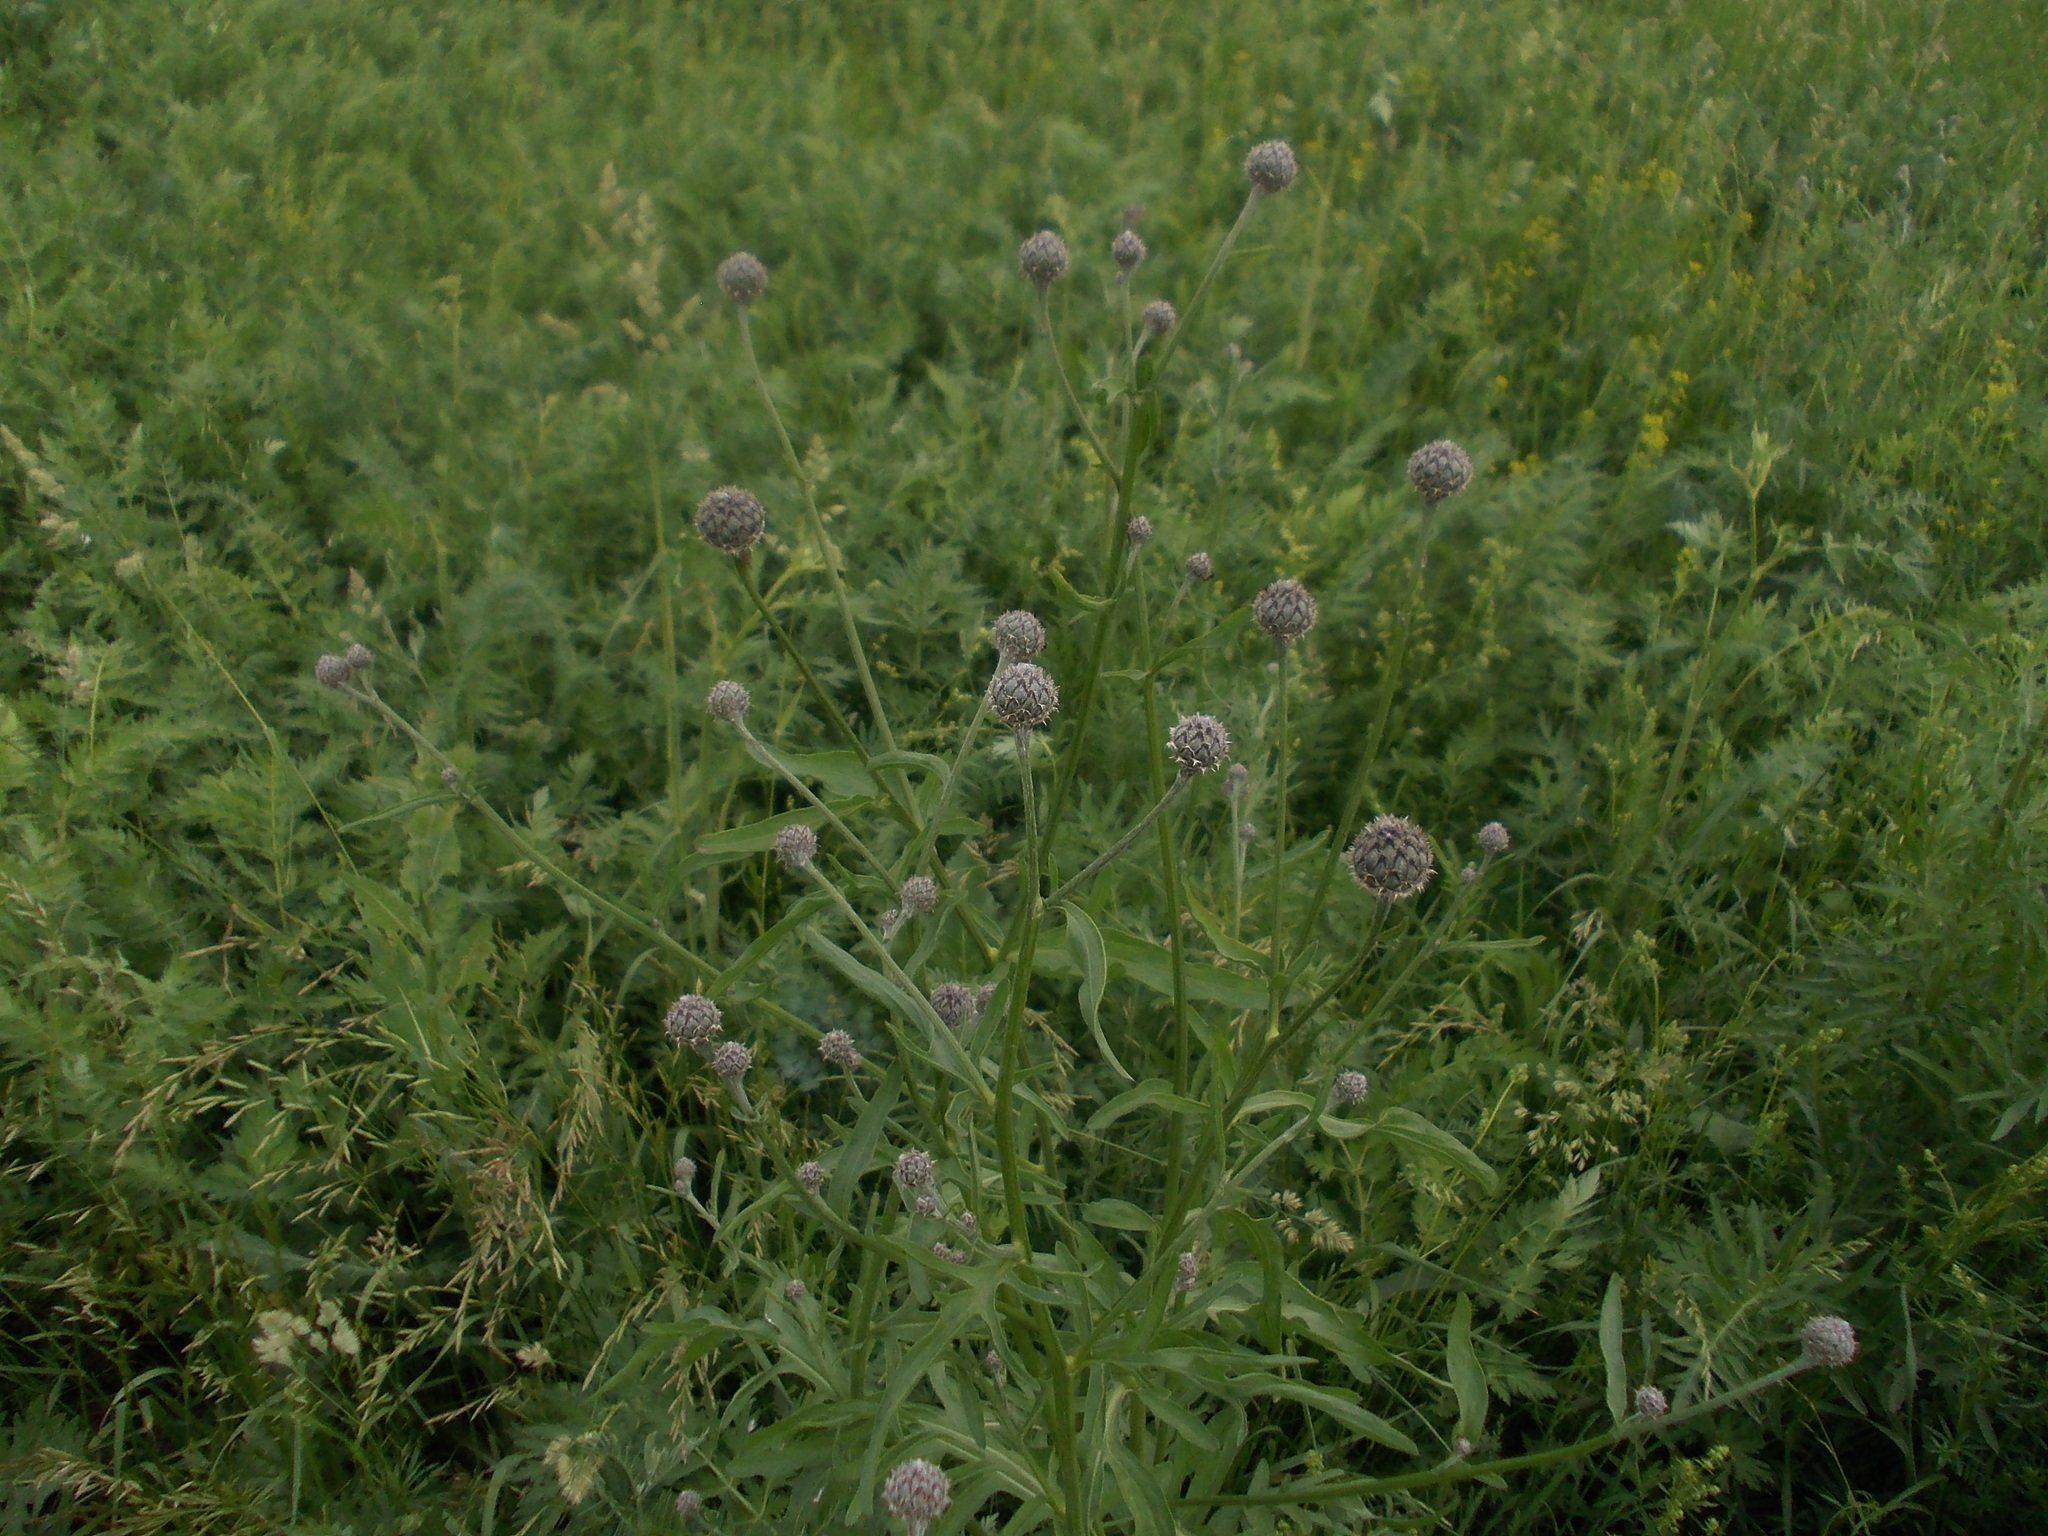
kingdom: Plantae
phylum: Tracheophyta
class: Magnoliopsida
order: Asterales
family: Asteraceae
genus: Centaurea
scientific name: Centaurea scabiosa
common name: Greater knapweed
